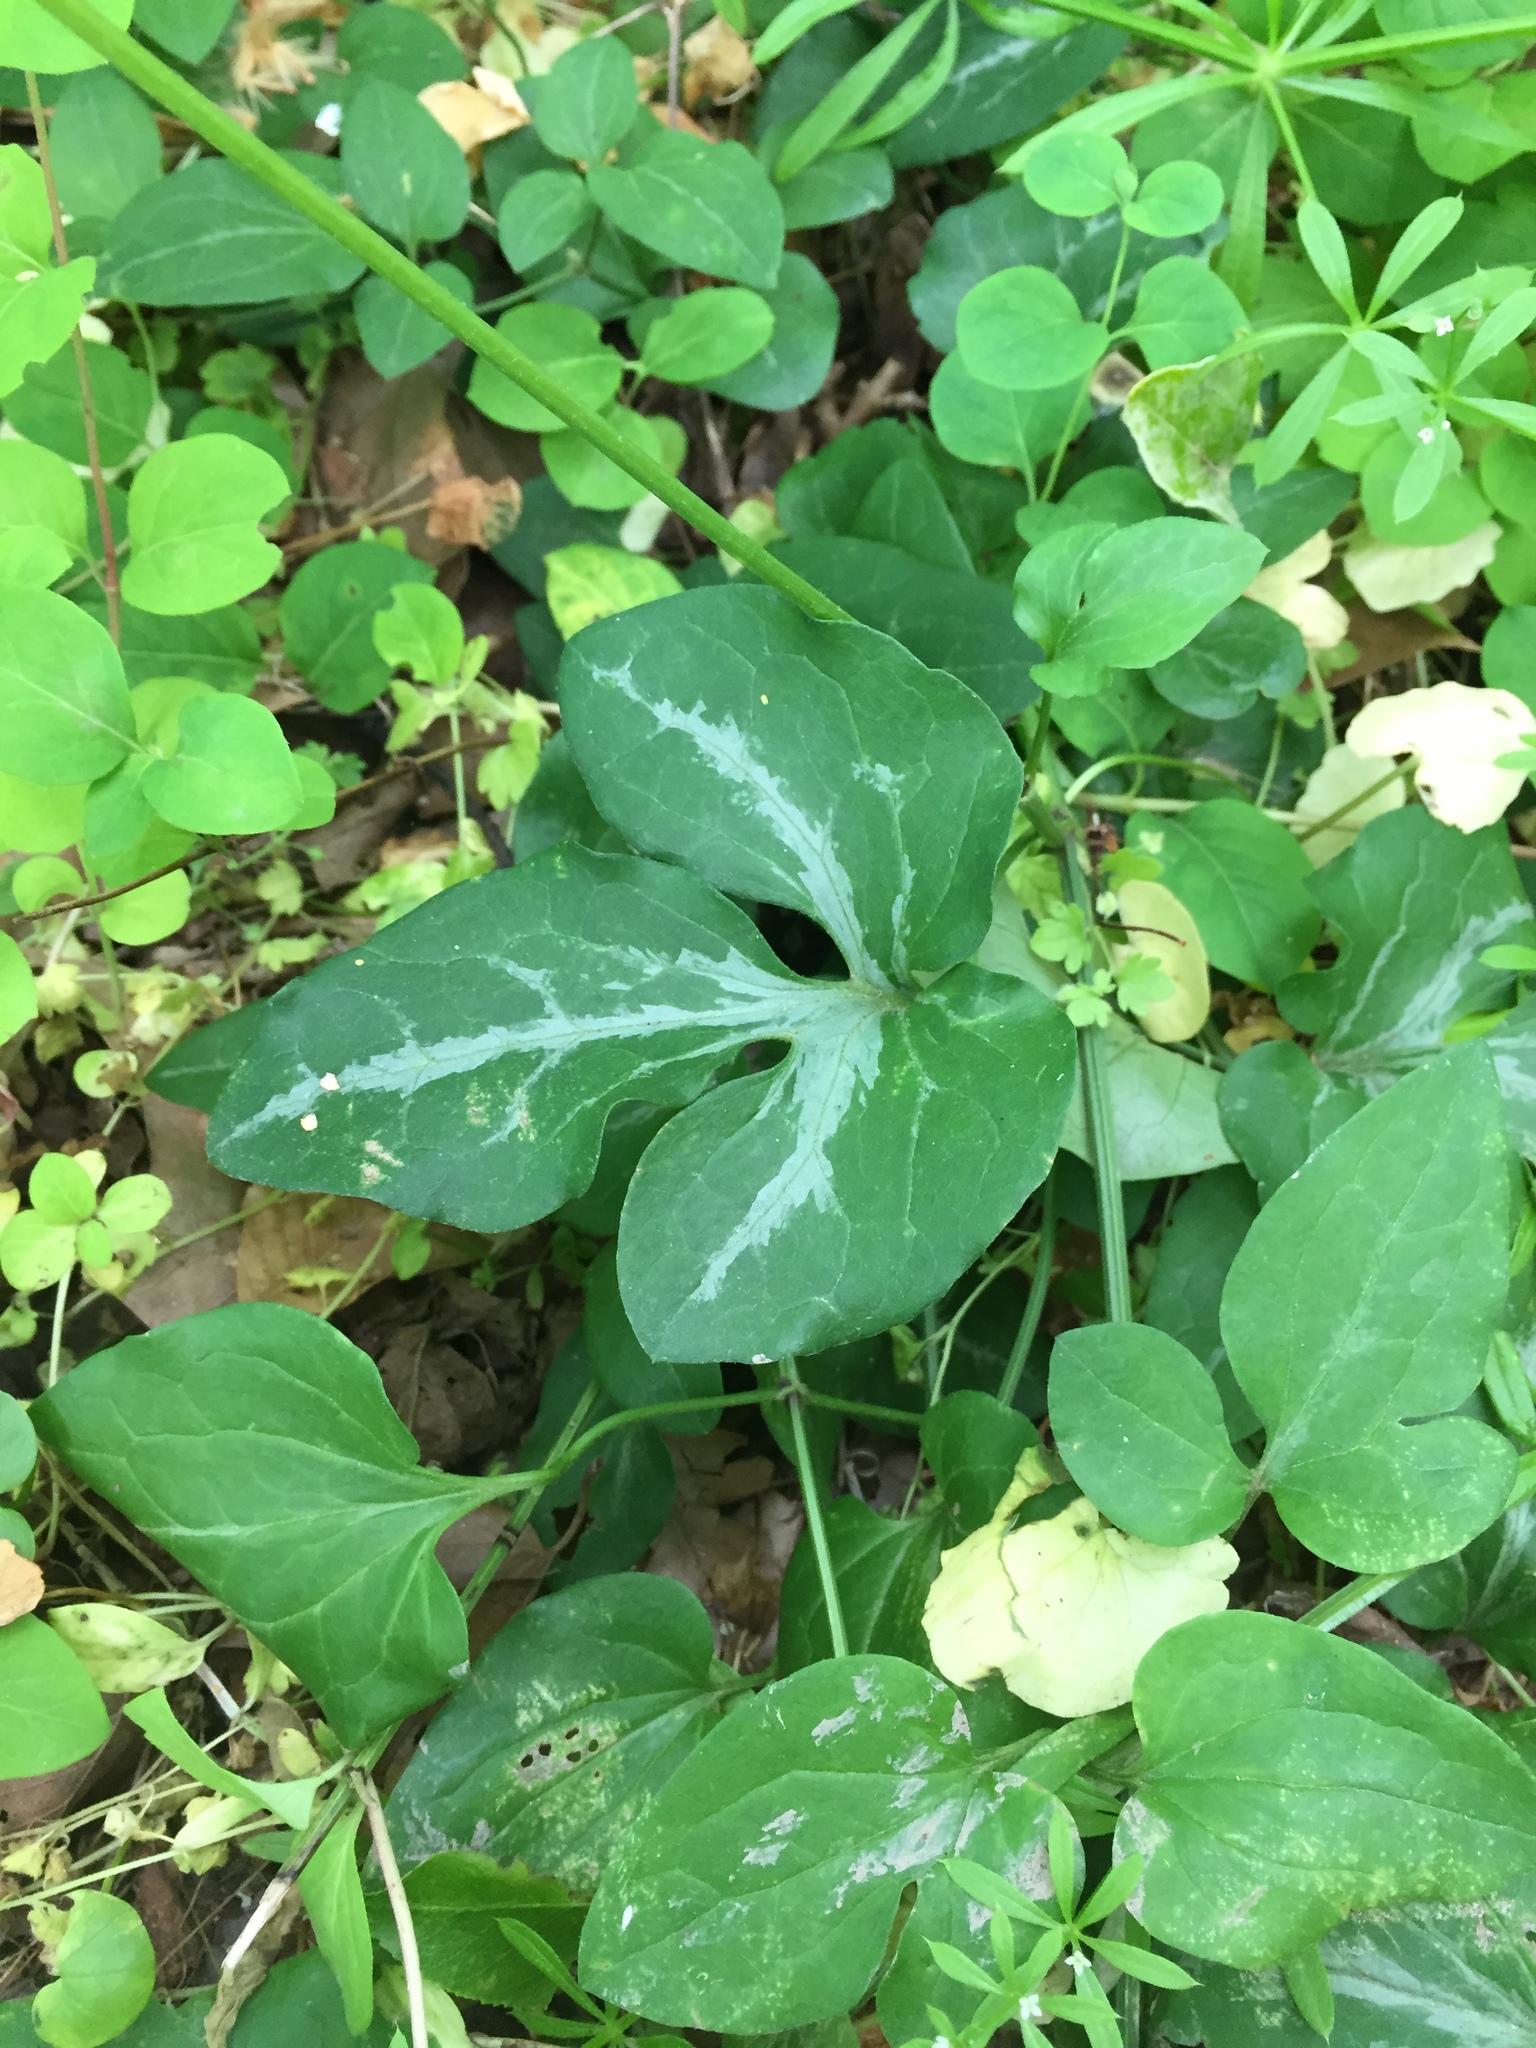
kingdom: Plantae
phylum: Tracheophyta
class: Magnoliopsida
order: Ranunculales
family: Ranunculaceae
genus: Clematis
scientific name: Clematis terniflora
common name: Sweet autumn clematis
